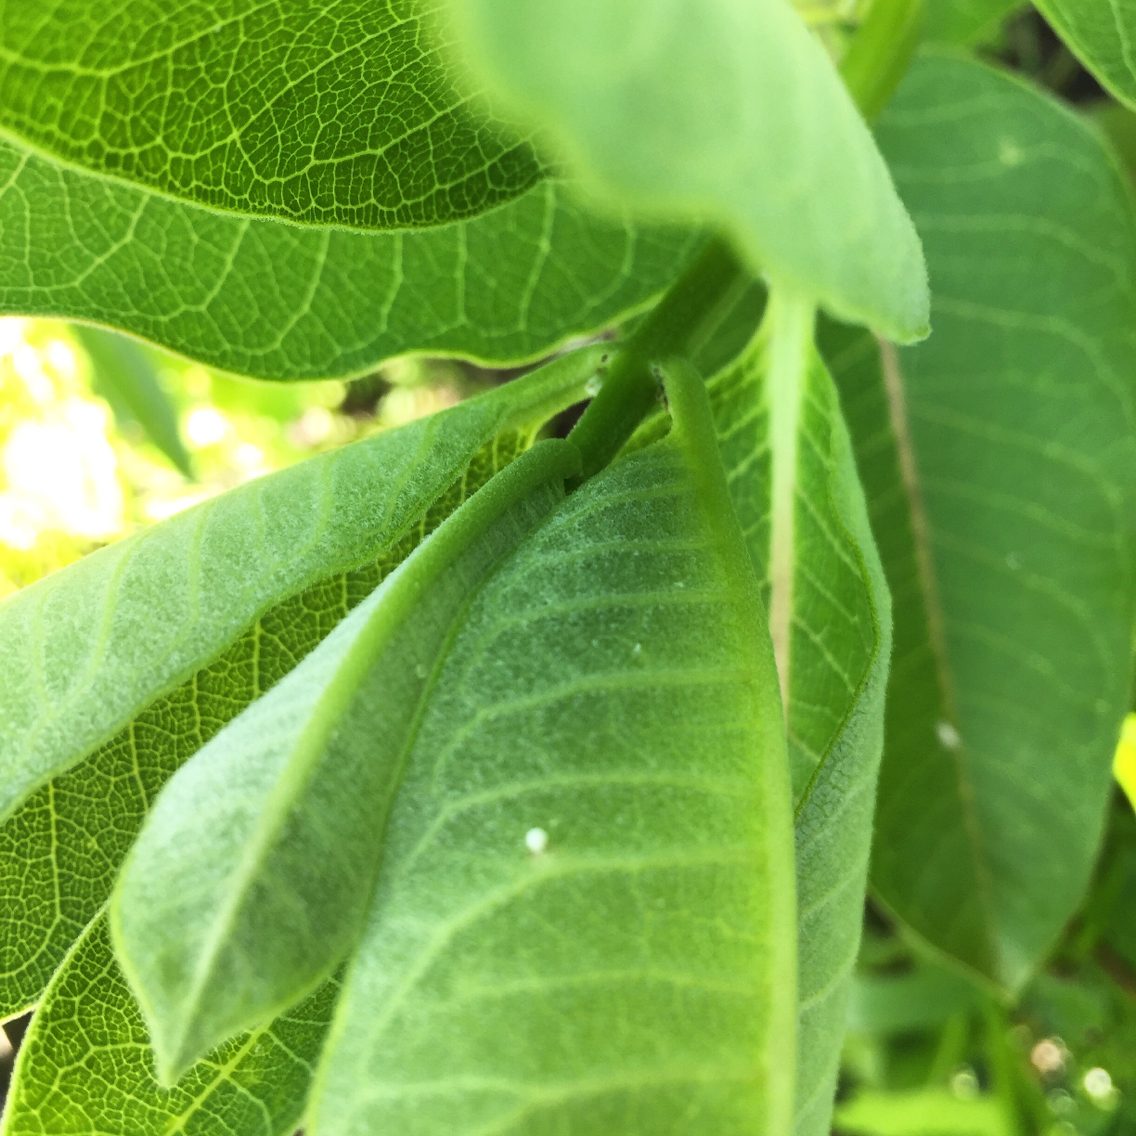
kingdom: Animalia
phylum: Arthropoda
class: Insecta
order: Lepidoptera
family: Nymphalidae
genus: Danaus
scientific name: Danaus plexippus
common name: Monarch
